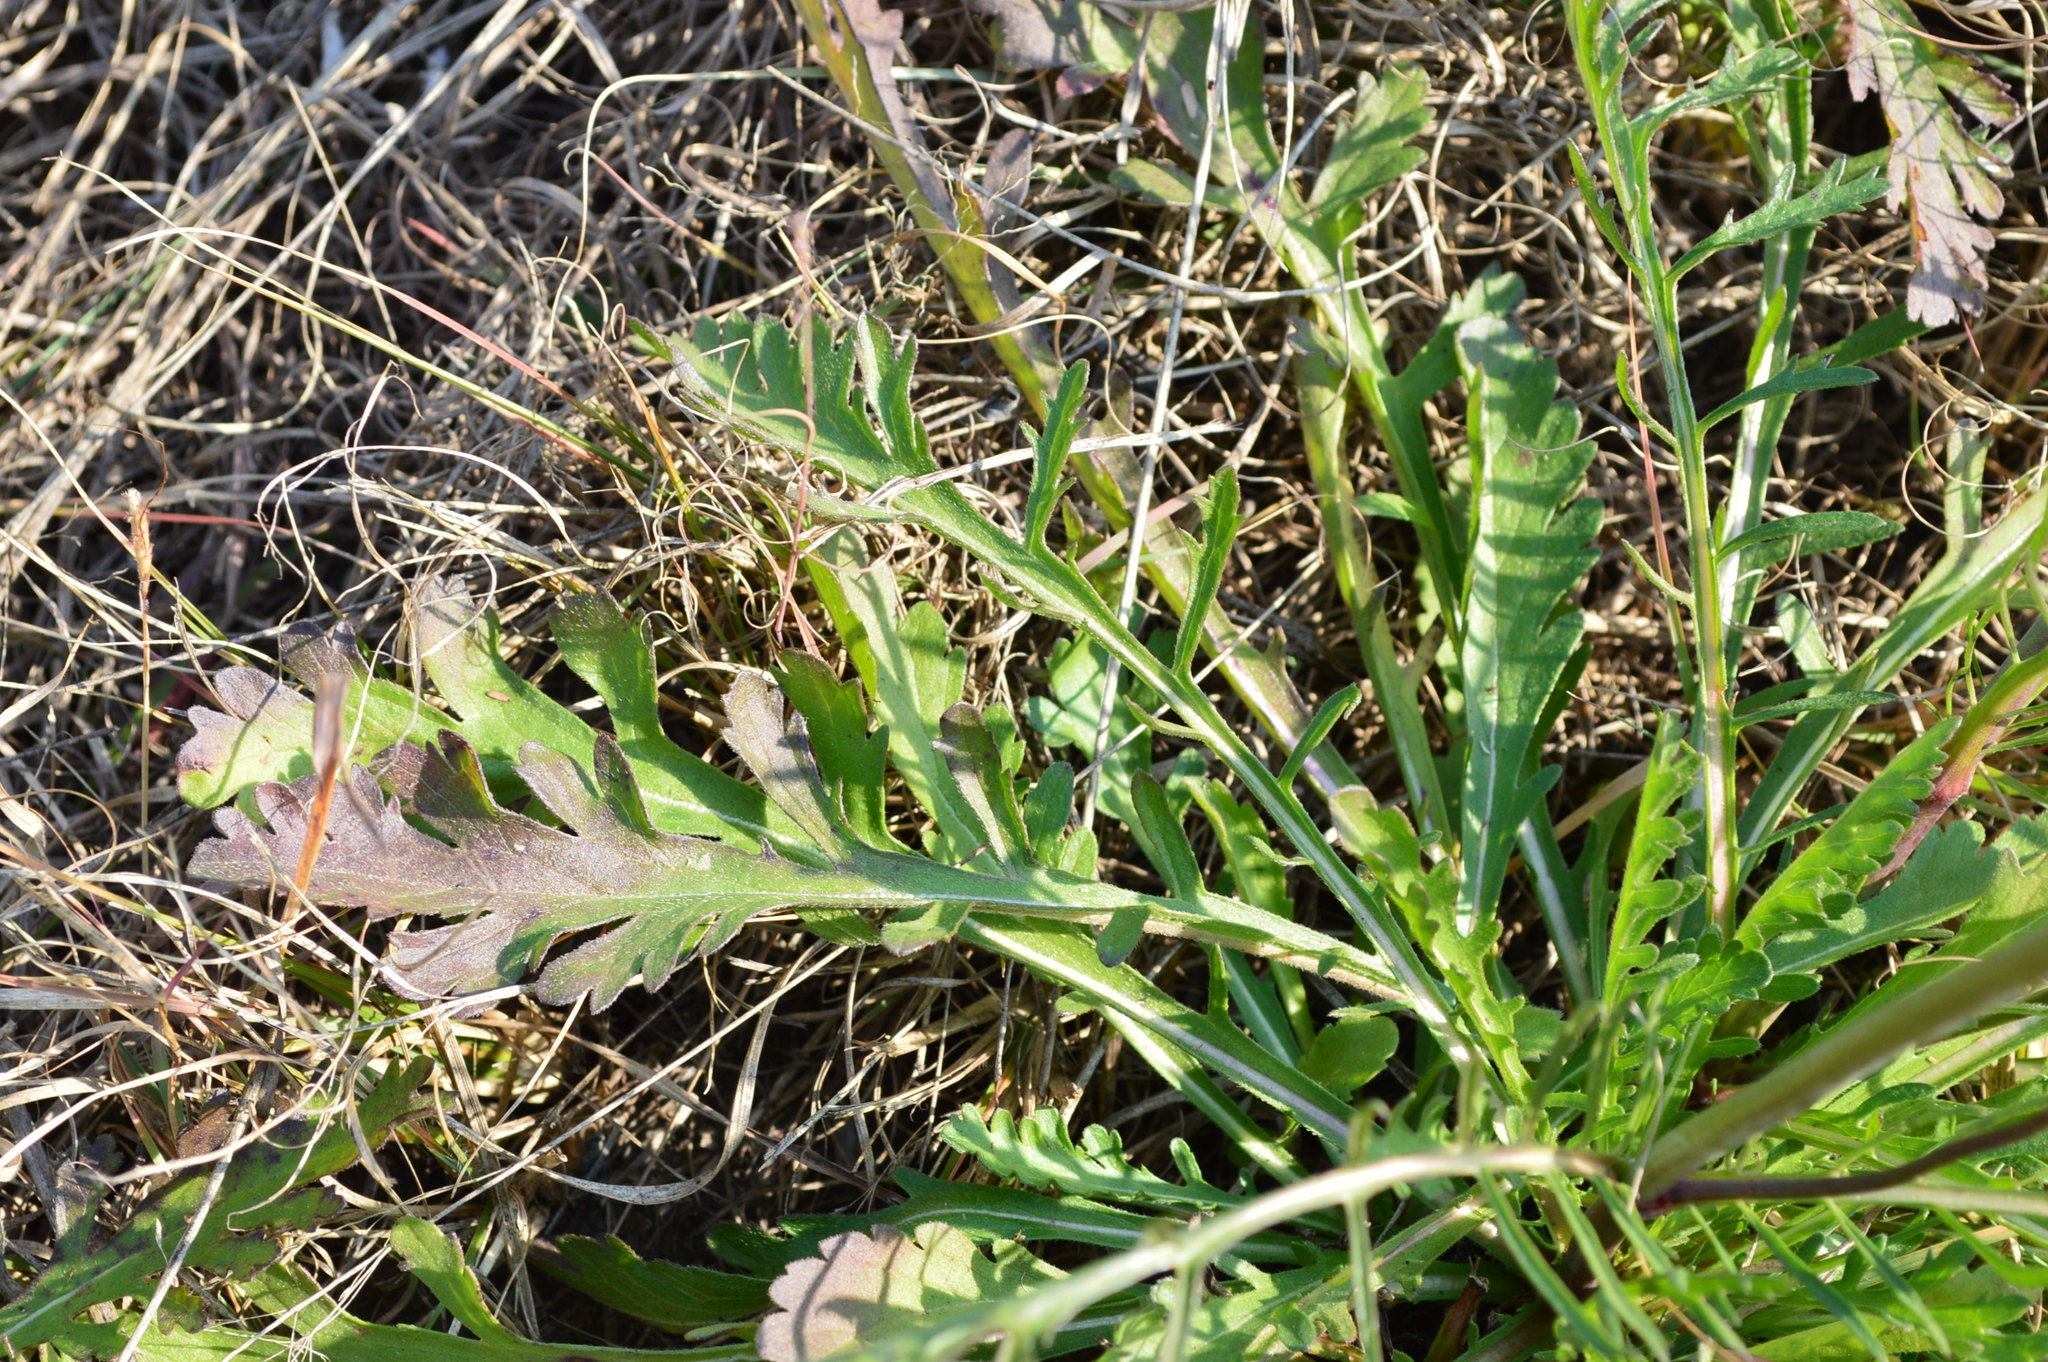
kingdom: Plantae
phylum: Tracheophyta
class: Magnoliopsida
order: Dipsacales
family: Caprifoliaceae
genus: Scabiosa
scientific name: Scabiosa columbaria
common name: Small scabious
